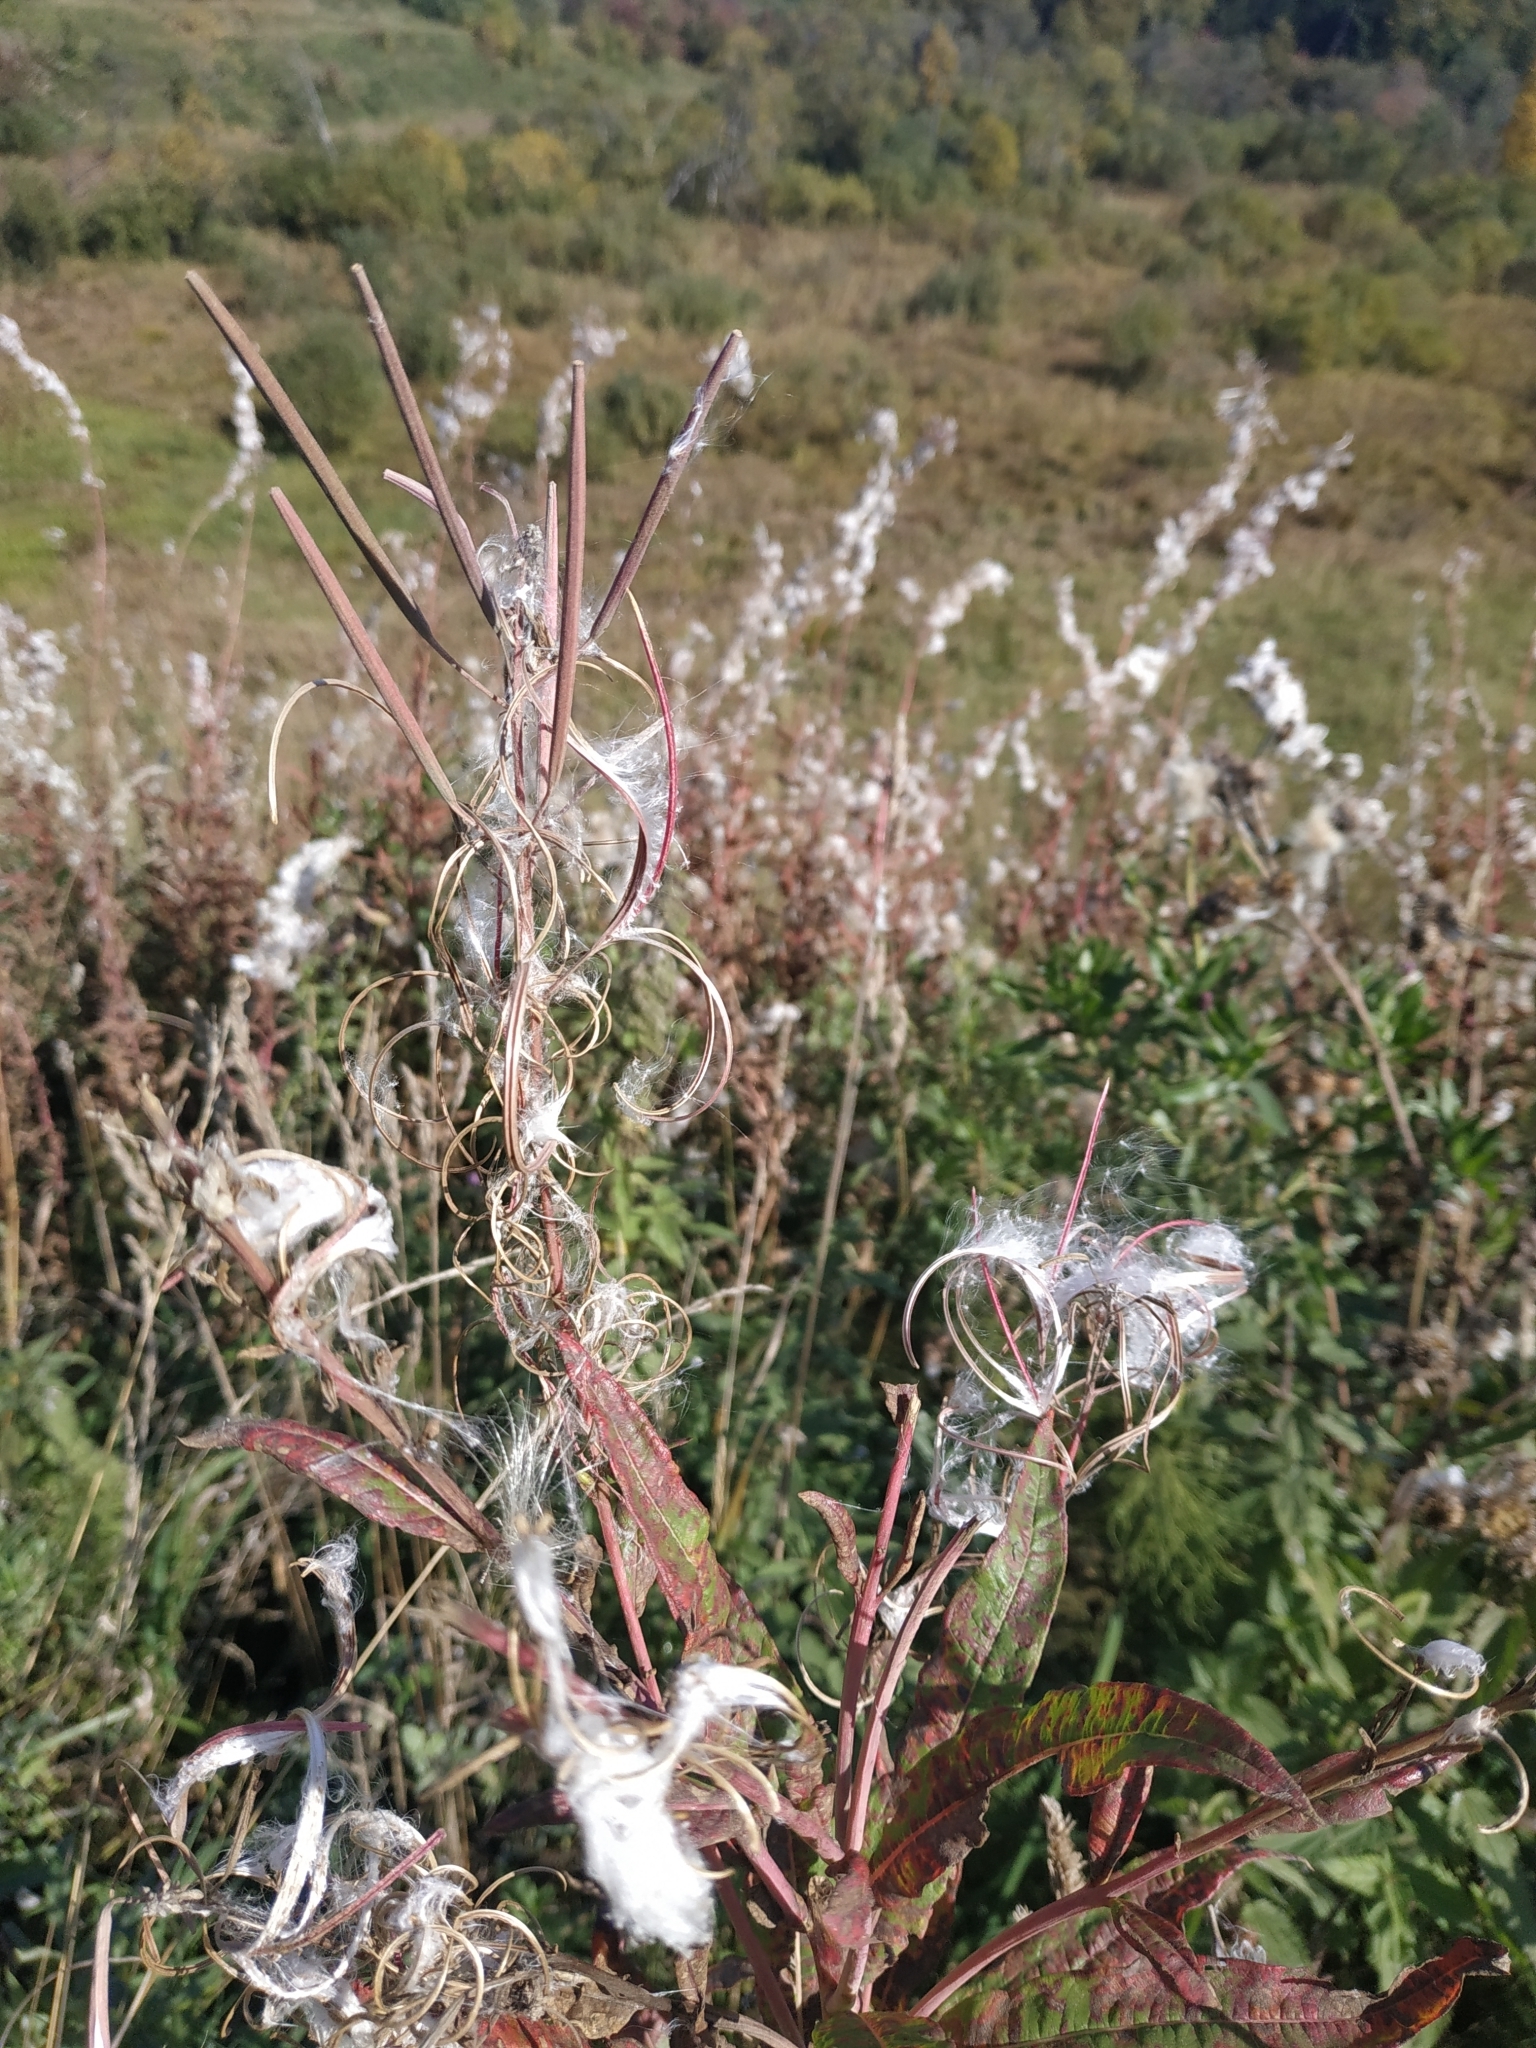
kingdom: Plantae
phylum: Tracheophyta
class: Magnoliopsida
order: Myrtales
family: Onagraceae
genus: Chamaenerion
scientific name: Chamaenerion angustifolium
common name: Fireweed
